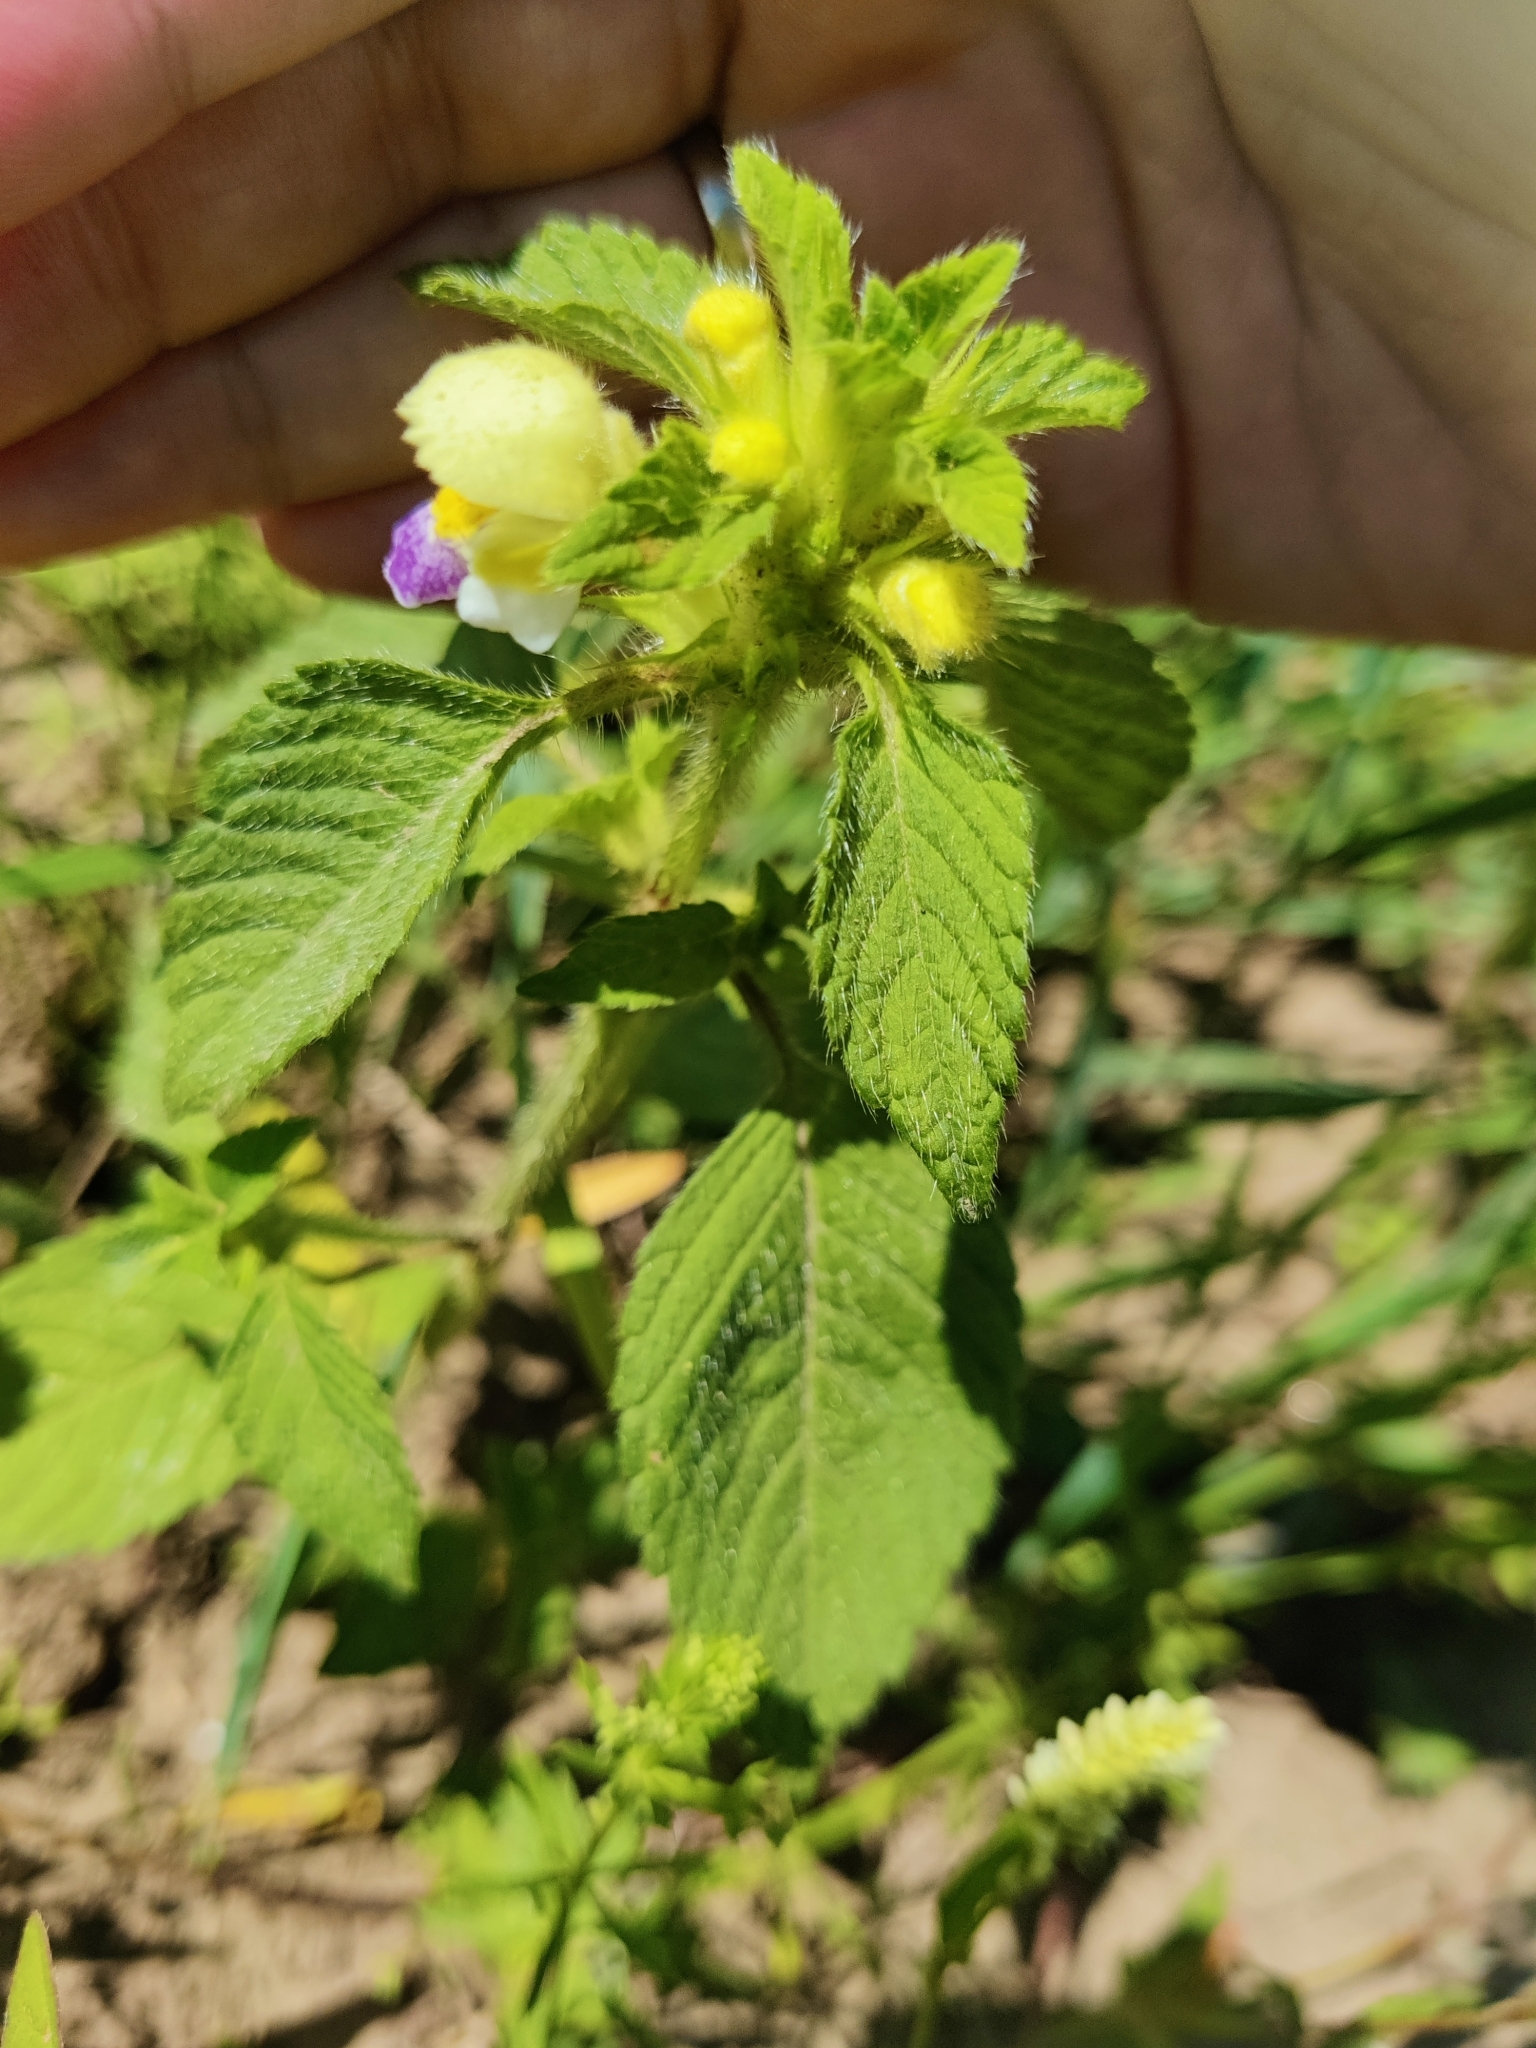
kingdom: Plantae
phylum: Tracheophyta
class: Magnoliopsida
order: Lamiales
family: Lamiaceae
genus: Galeopsis
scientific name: Galeopsis speciosa
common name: Large-flowered hemp-nettle
